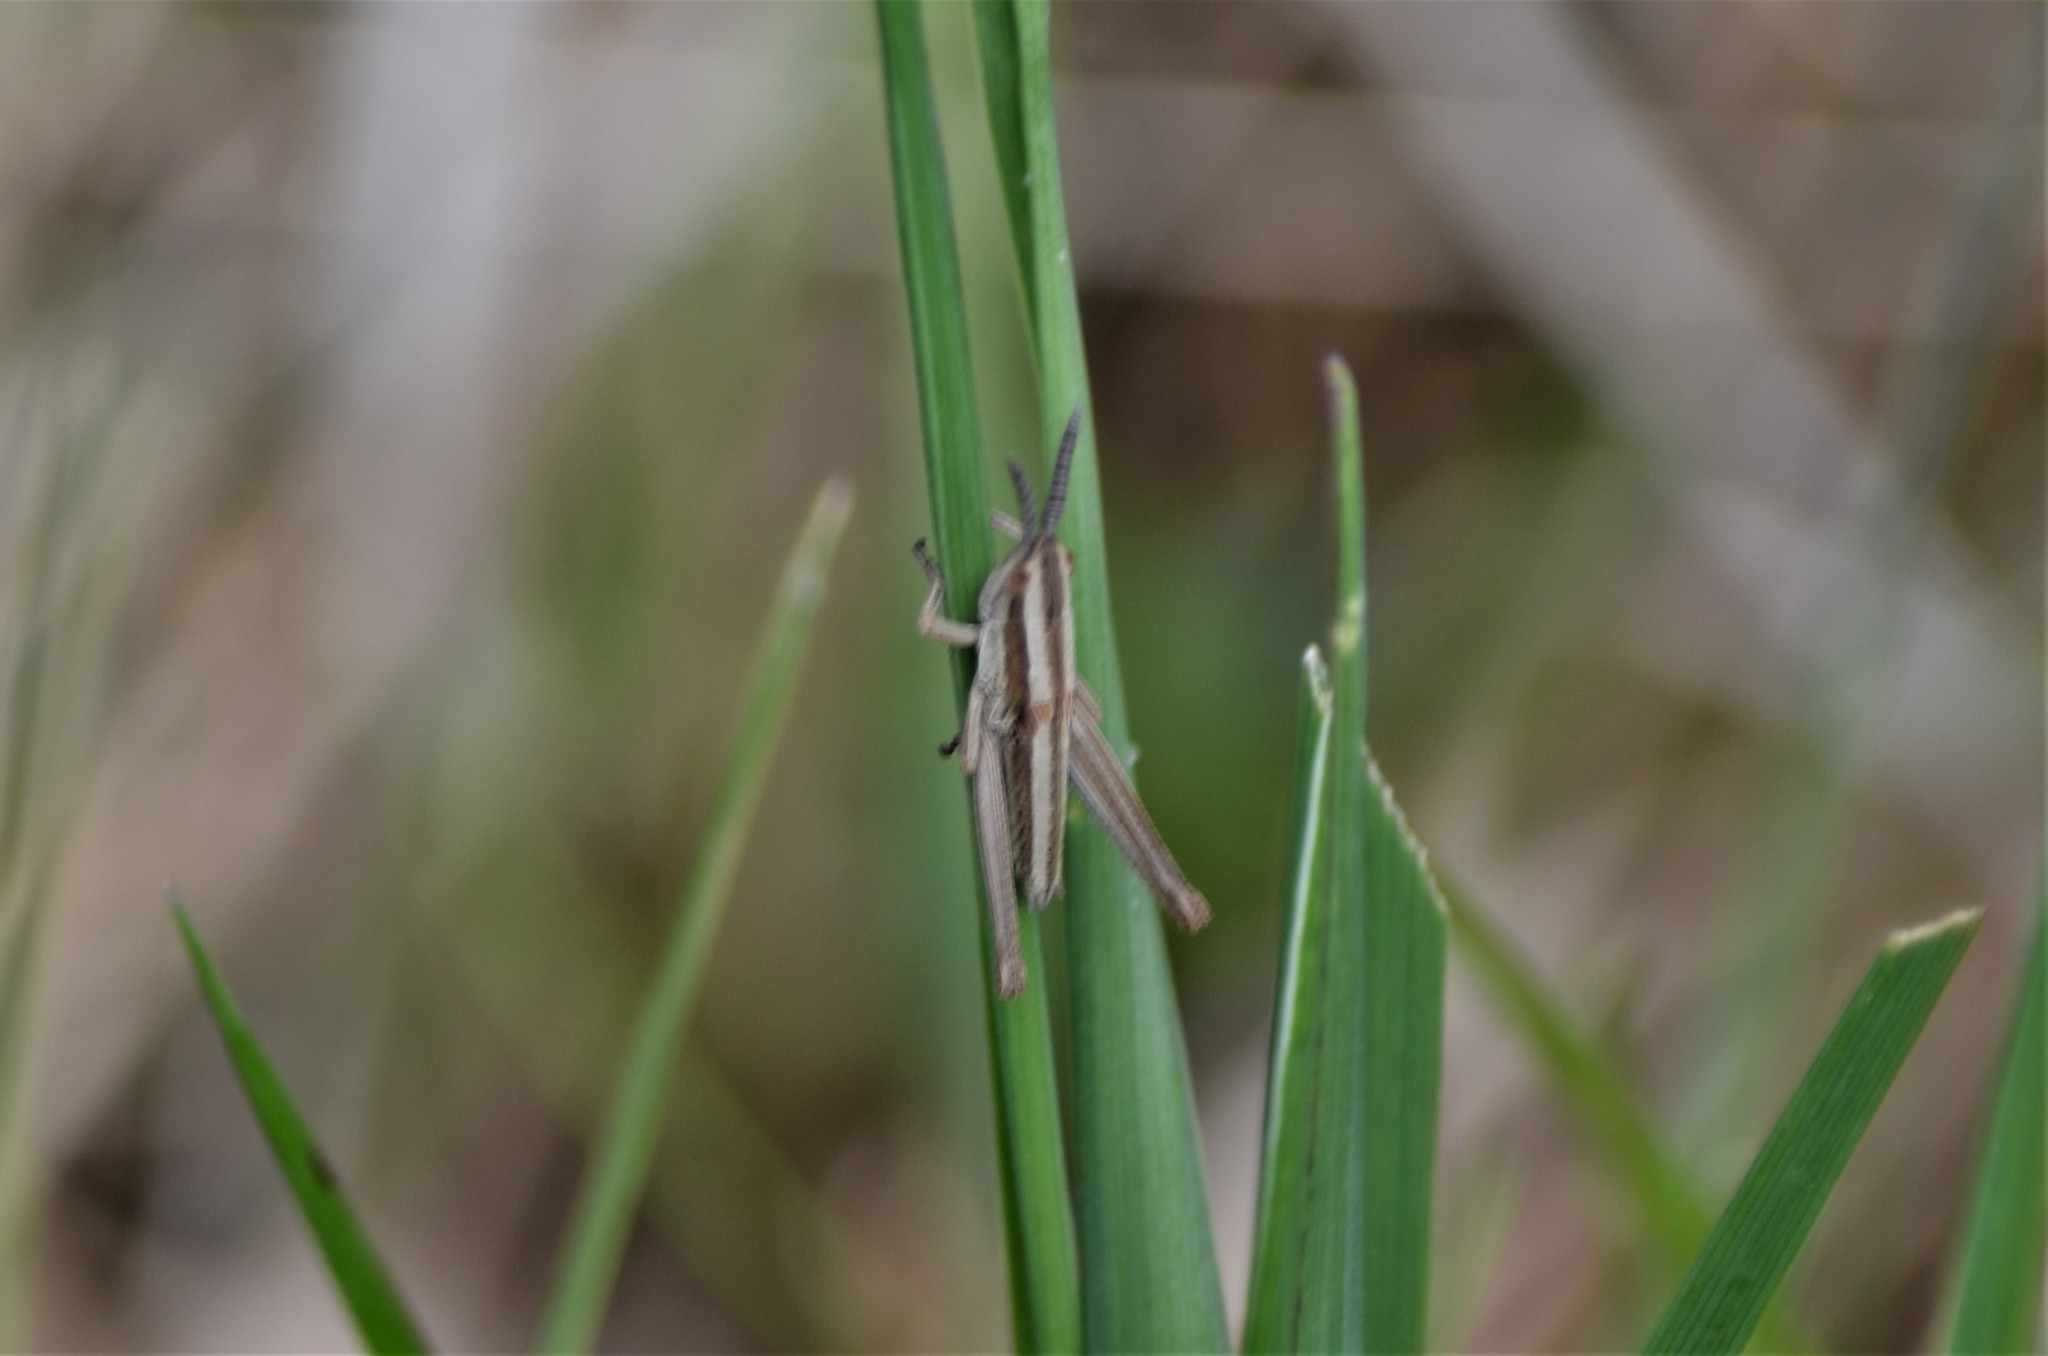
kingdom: Animalia
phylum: Arthropoda
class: Insecta
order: Orthoptera
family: Acrididae
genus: Euthystira
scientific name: Euthystira brachyptera
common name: Small gold grasshopper
